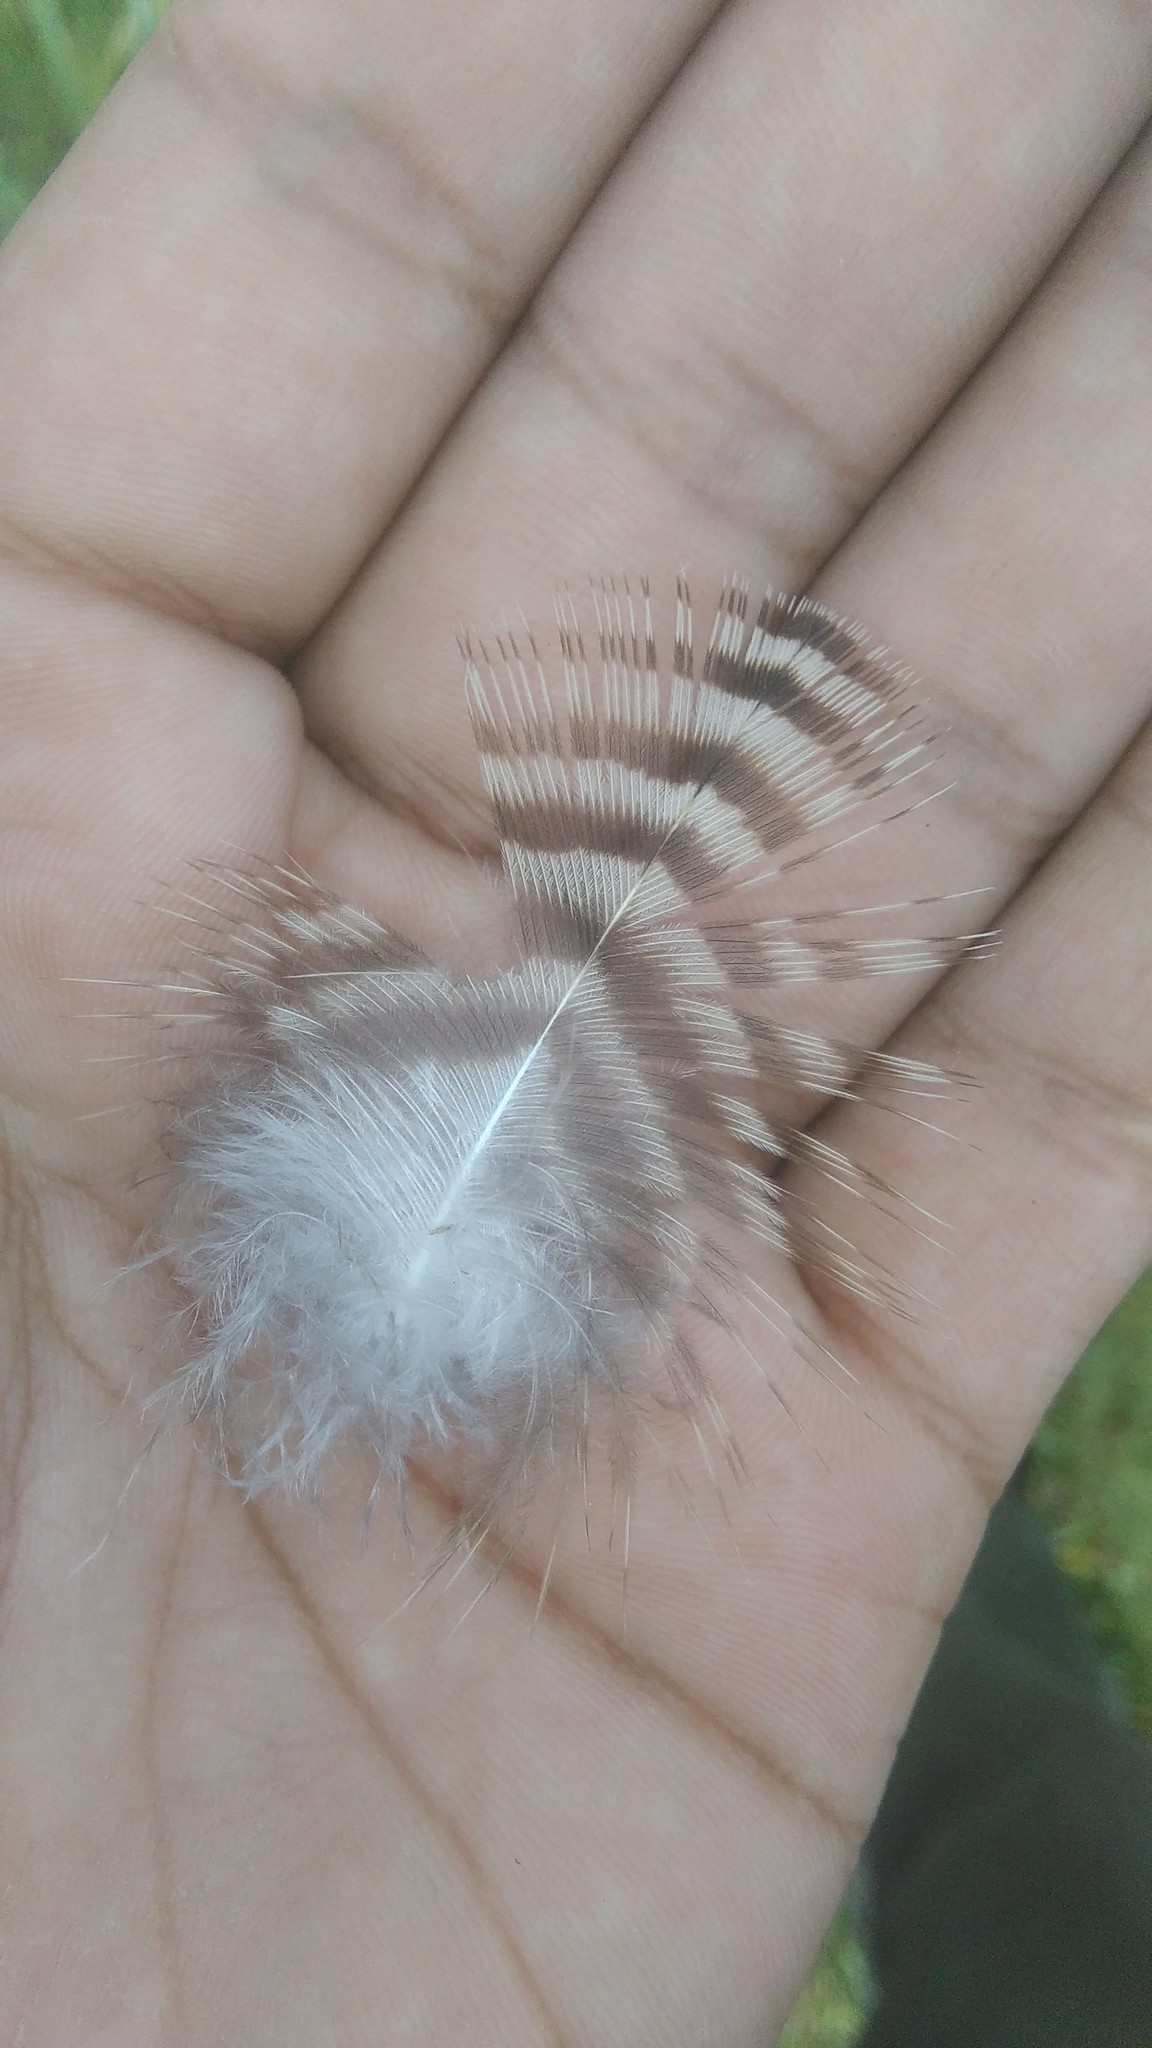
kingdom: Animalia
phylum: Chordata
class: Aves
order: Falconiformes
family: Falconidae
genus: Caracara
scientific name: Caracara plancus
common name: Southern caracara
